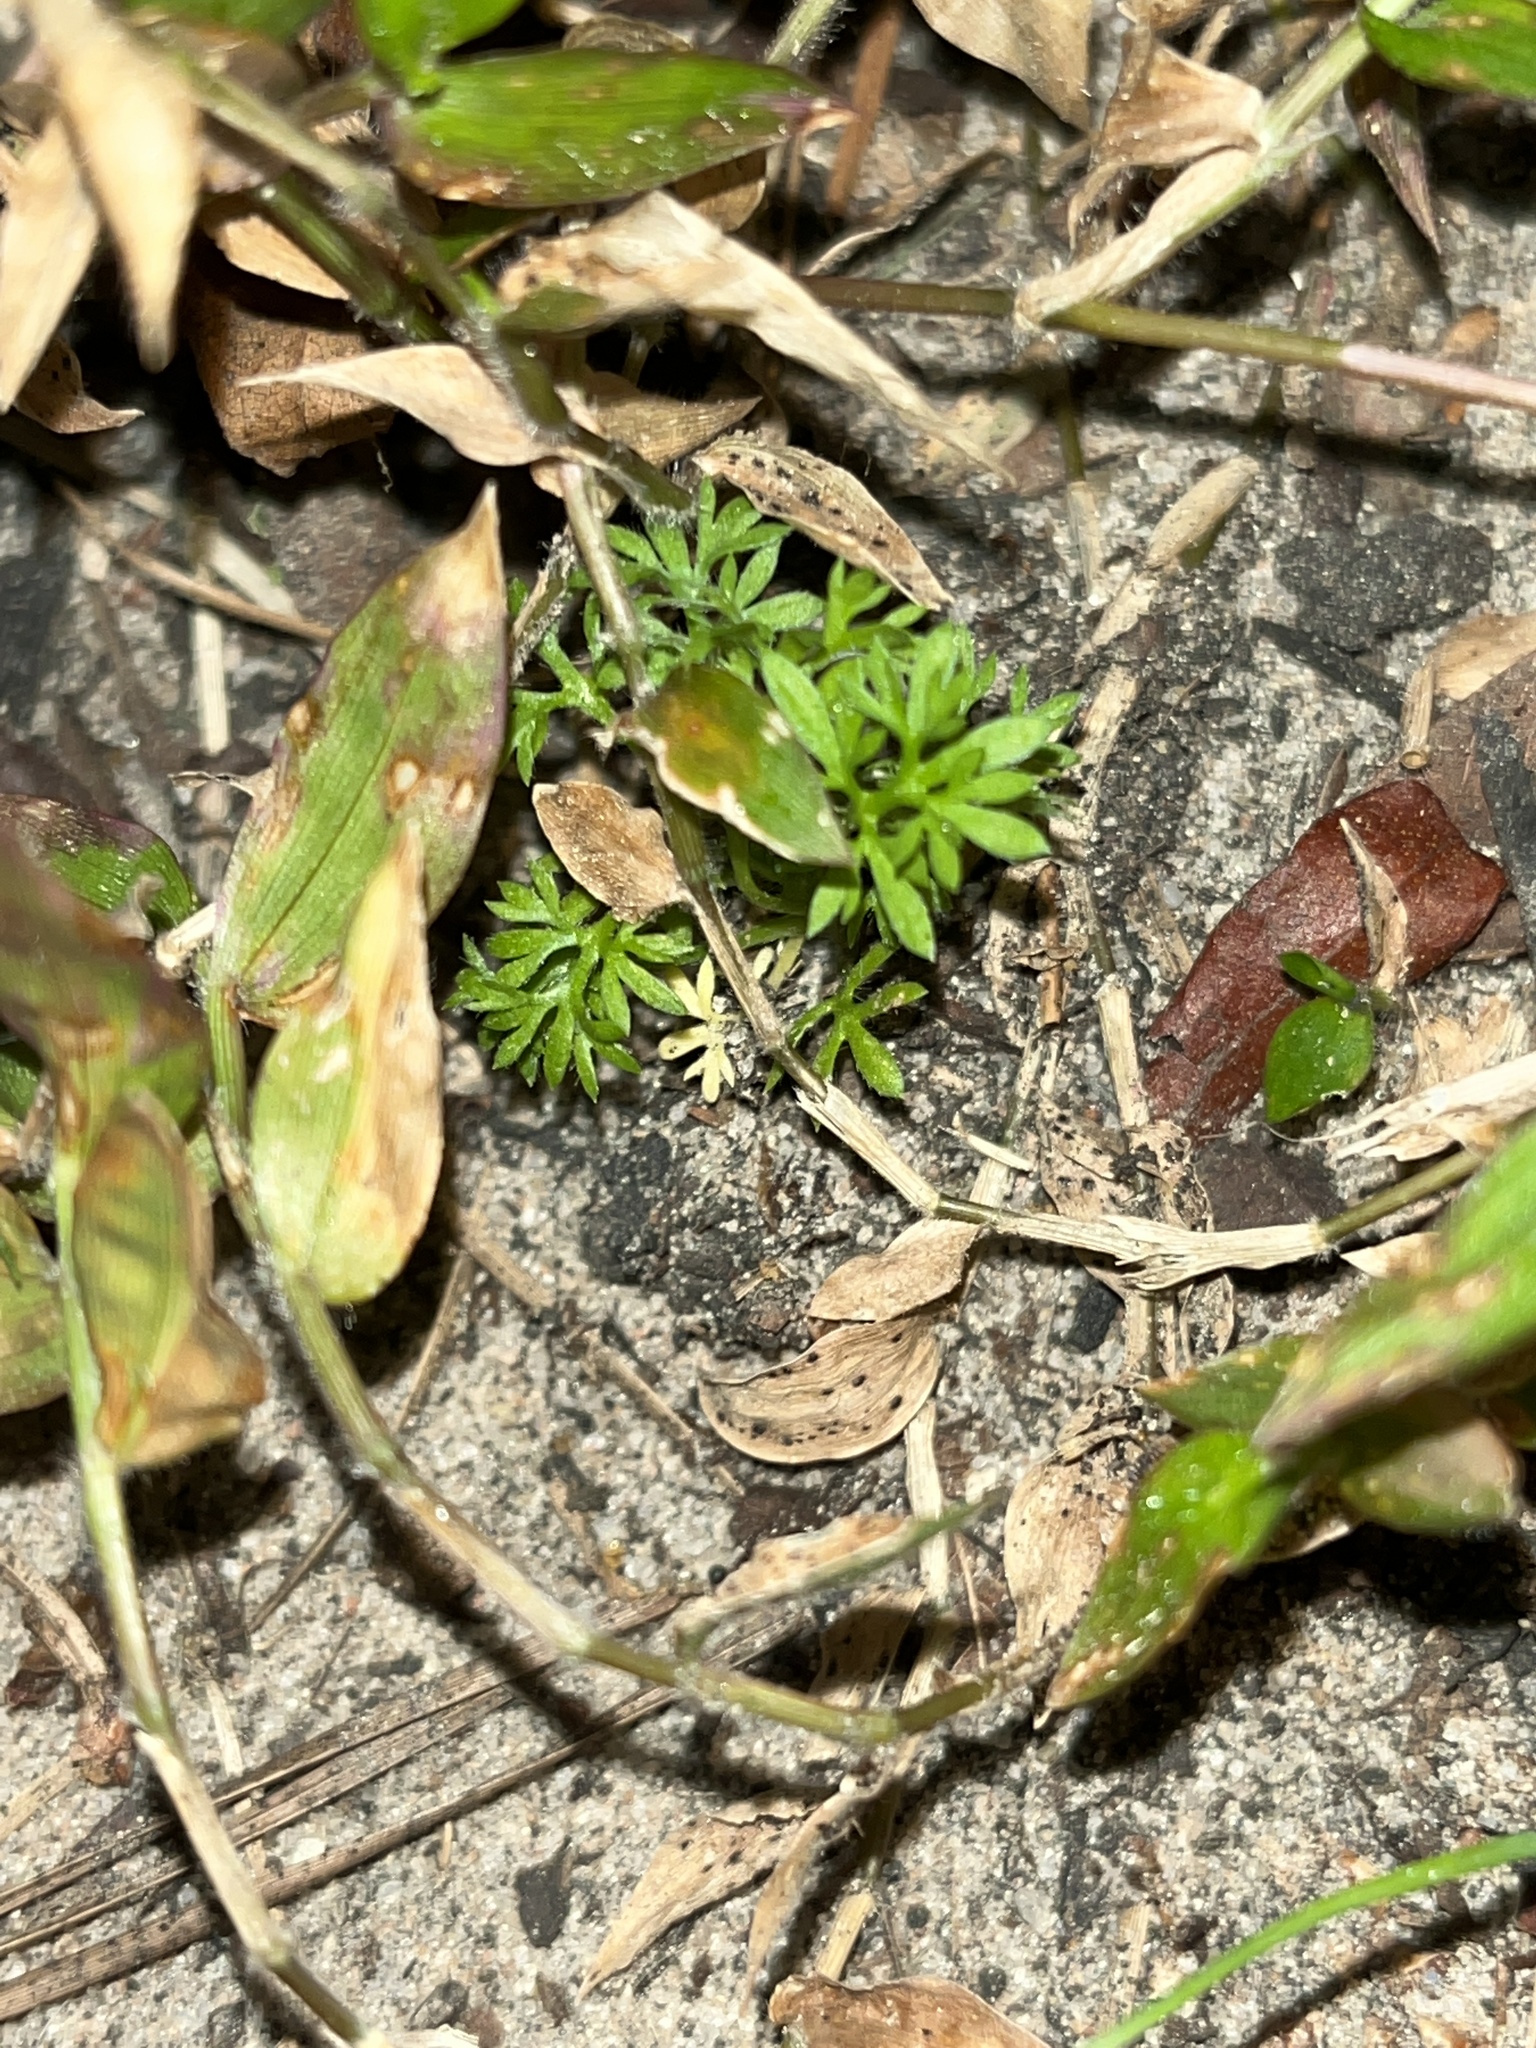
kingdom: Plantae
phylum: Tracheophyta
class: Magnoliopsida
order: Asterales
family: Asteraceae
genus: Soliva
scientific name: Soliva sessilis
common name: Field burrweed
